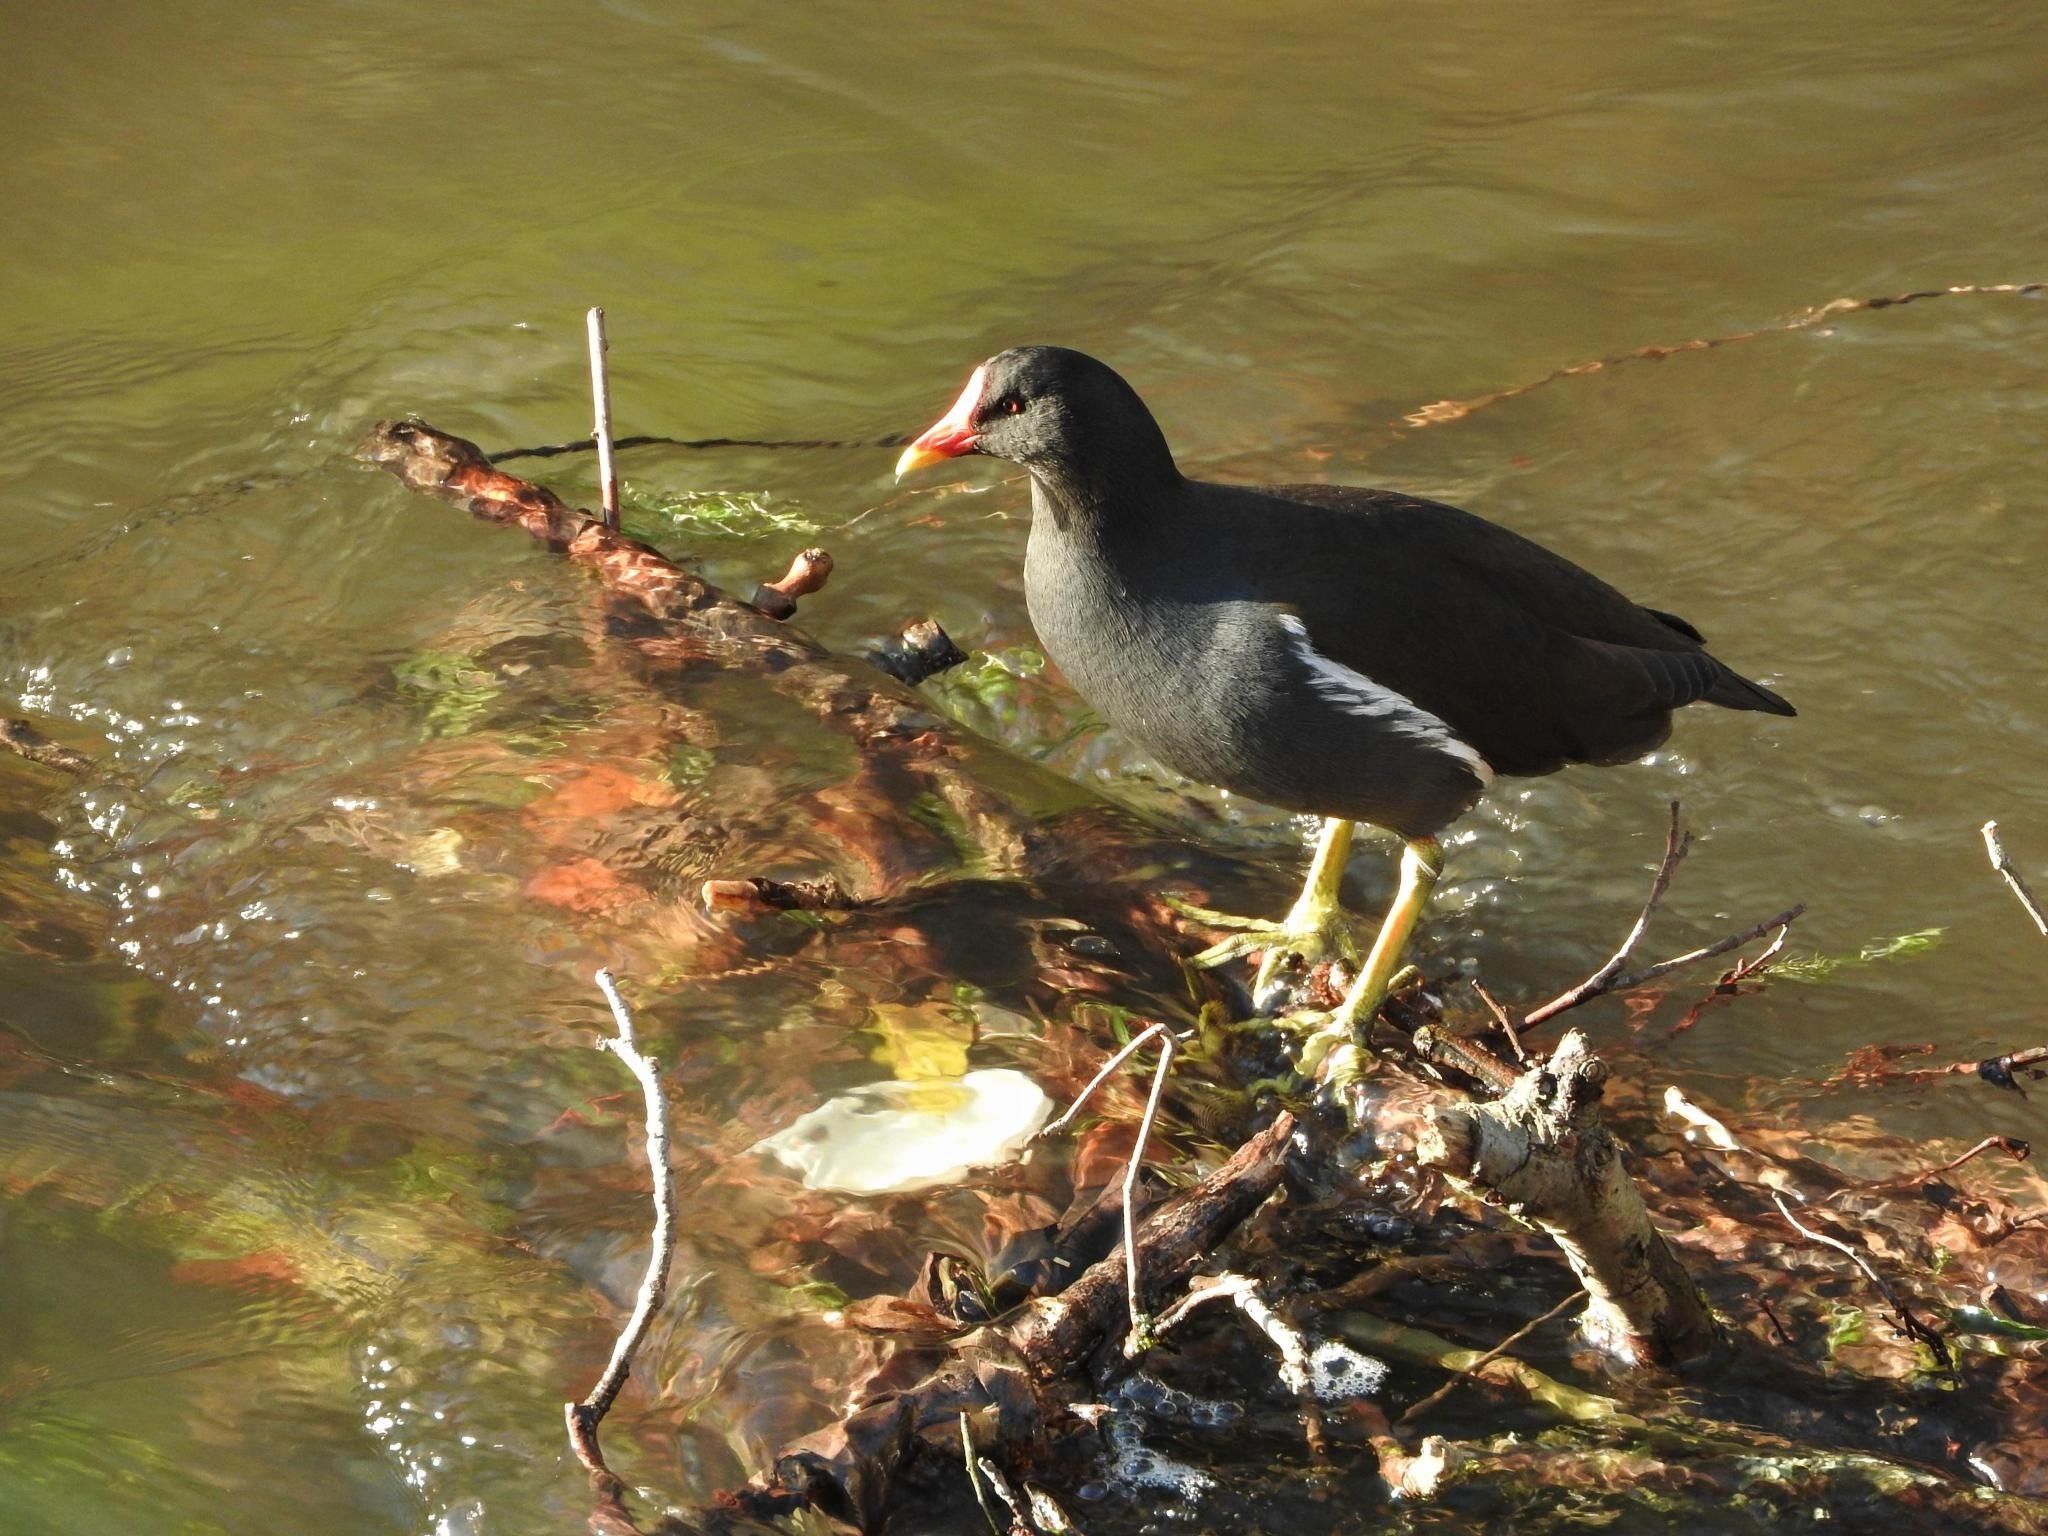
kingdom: Animalia
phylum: Chordata
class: Aves
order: Gruiformes
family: Rallidae
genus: Gallinula
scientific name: Gallinula chloropus
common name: Common moorhen
